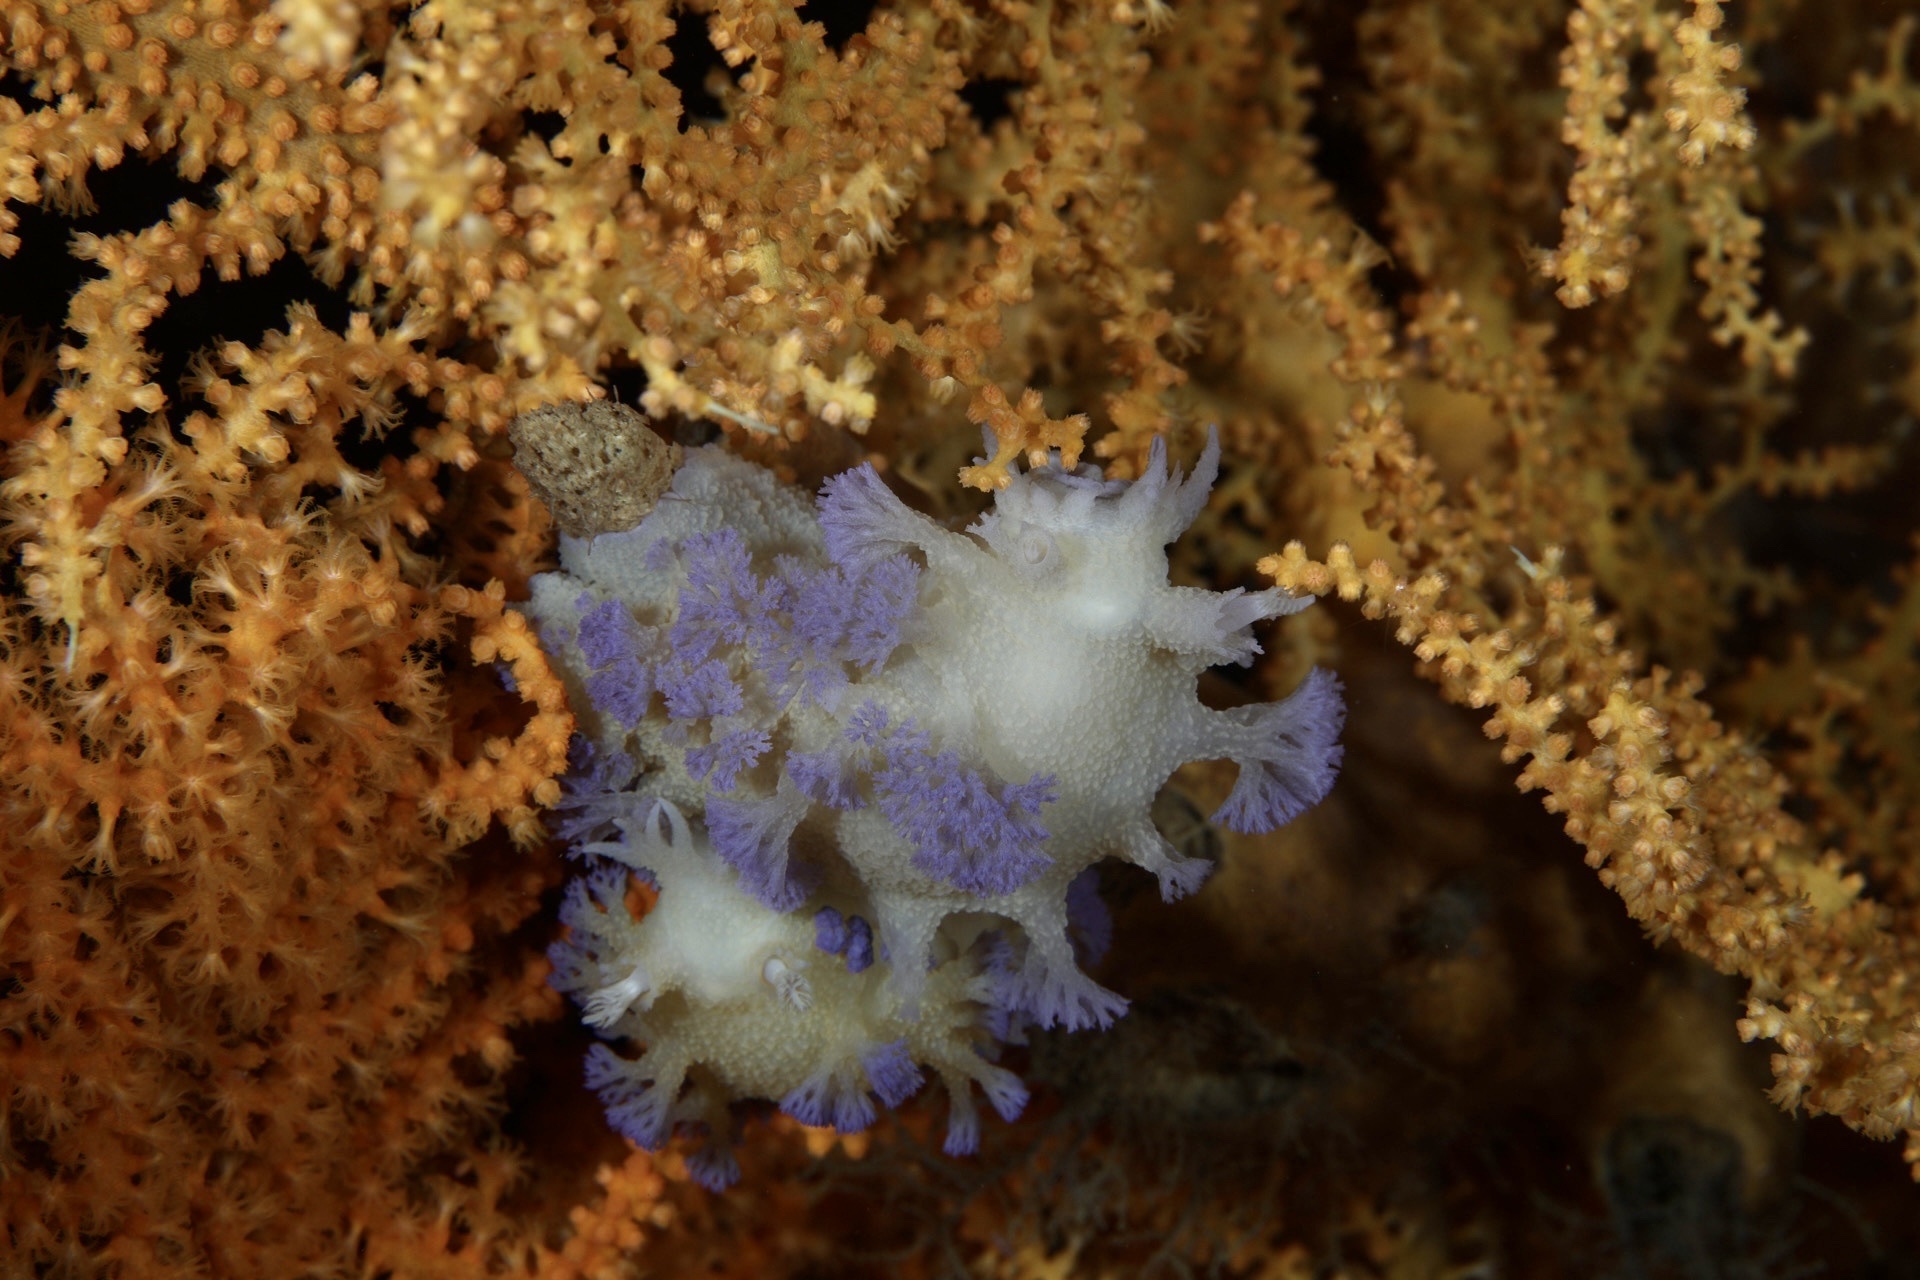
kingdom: Animalia
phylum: Mollusca
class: Gastropoda
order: Nudibranchia
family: Tritoniidae
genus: Tritonia
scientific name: Tritonia griegi
